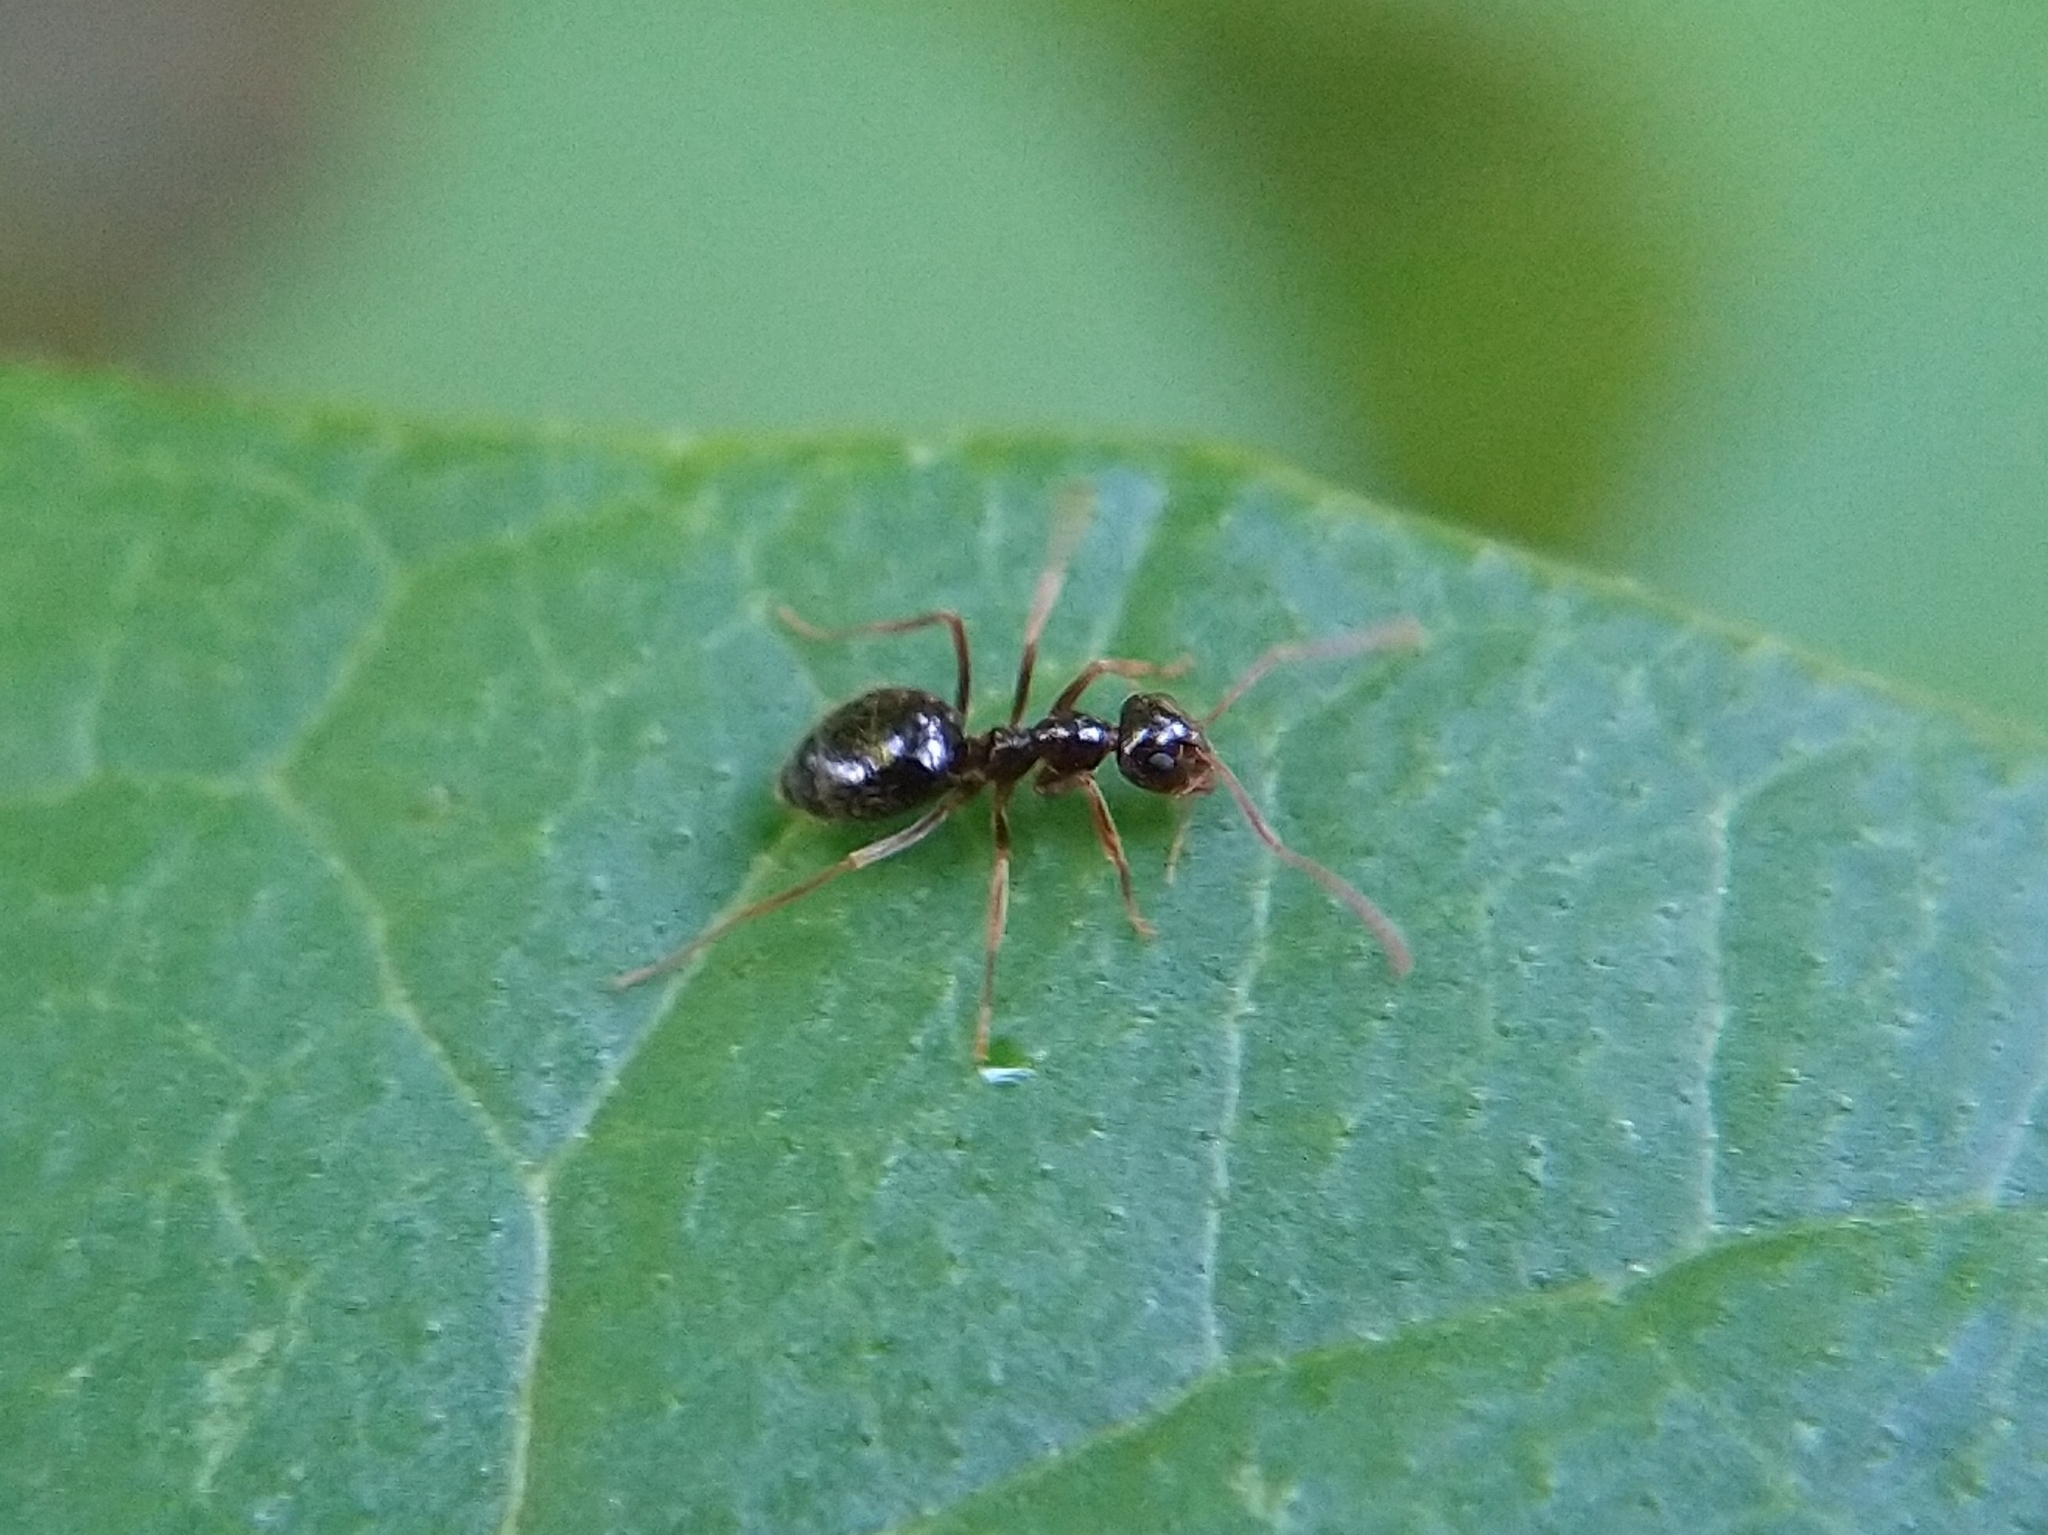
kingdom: Animalia
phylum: Arthropoda
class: Insecta
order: Hymenoptera
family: Formicidae
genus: Prenolepis
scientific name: Prenolepis imparis
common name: Small honey ant
